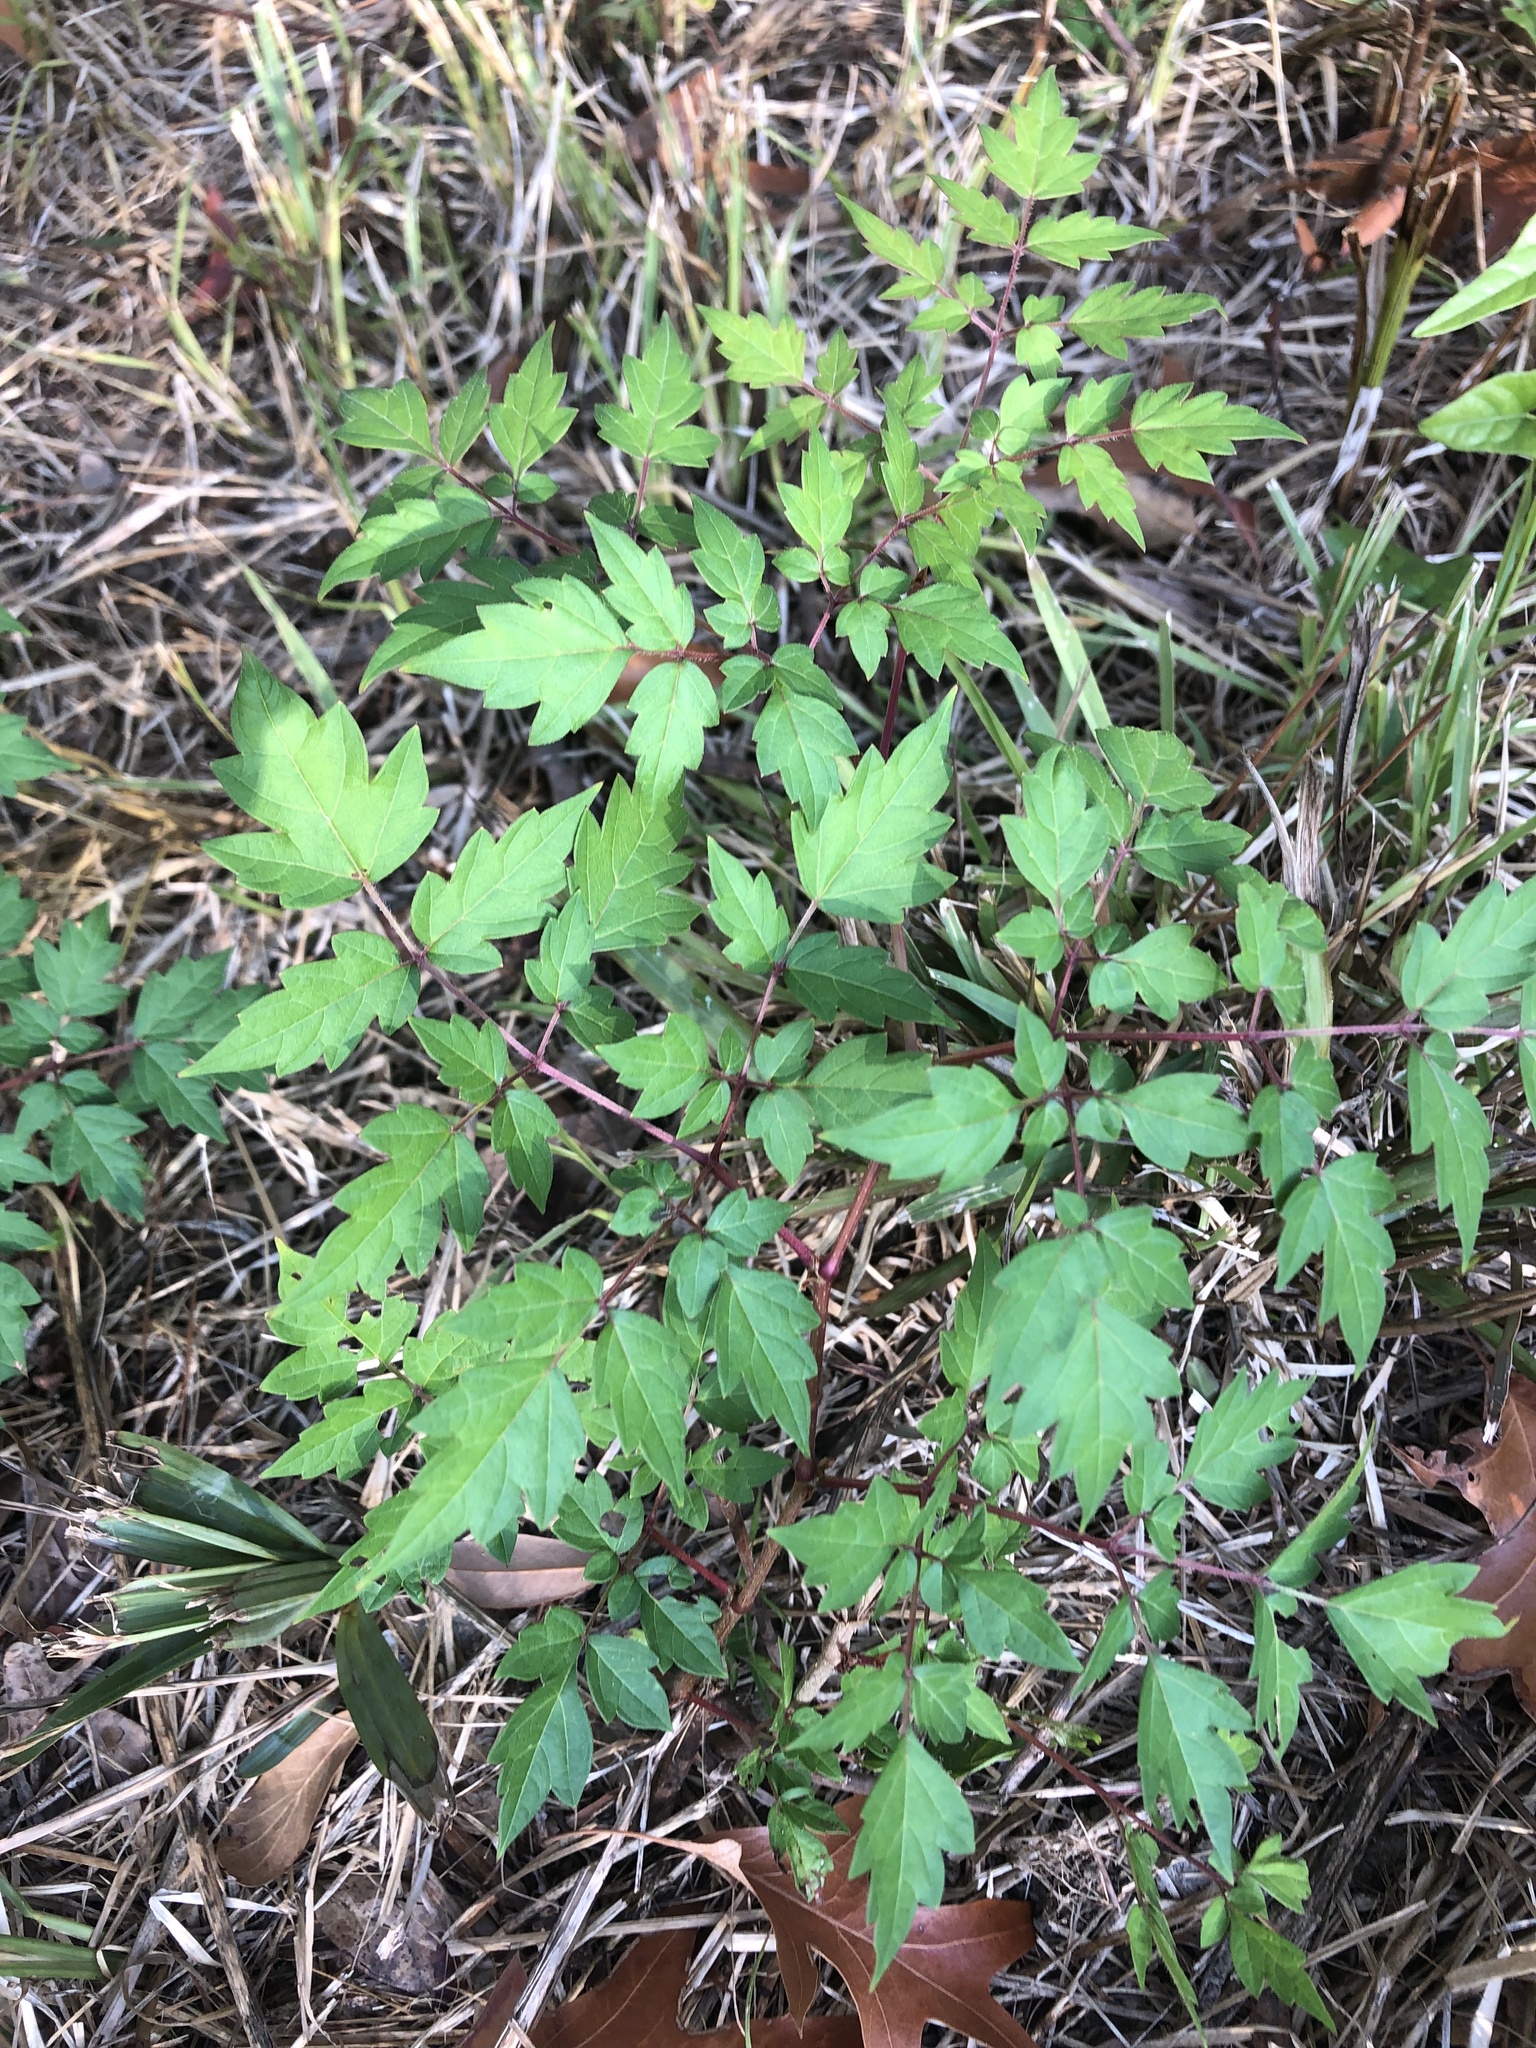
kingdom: Plantae
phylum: Tracheophyta
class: Magnoliopsida
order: Vitales
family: Vitaceae
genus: Nekemias
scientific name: Nekemias arborea
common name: Peppervine
